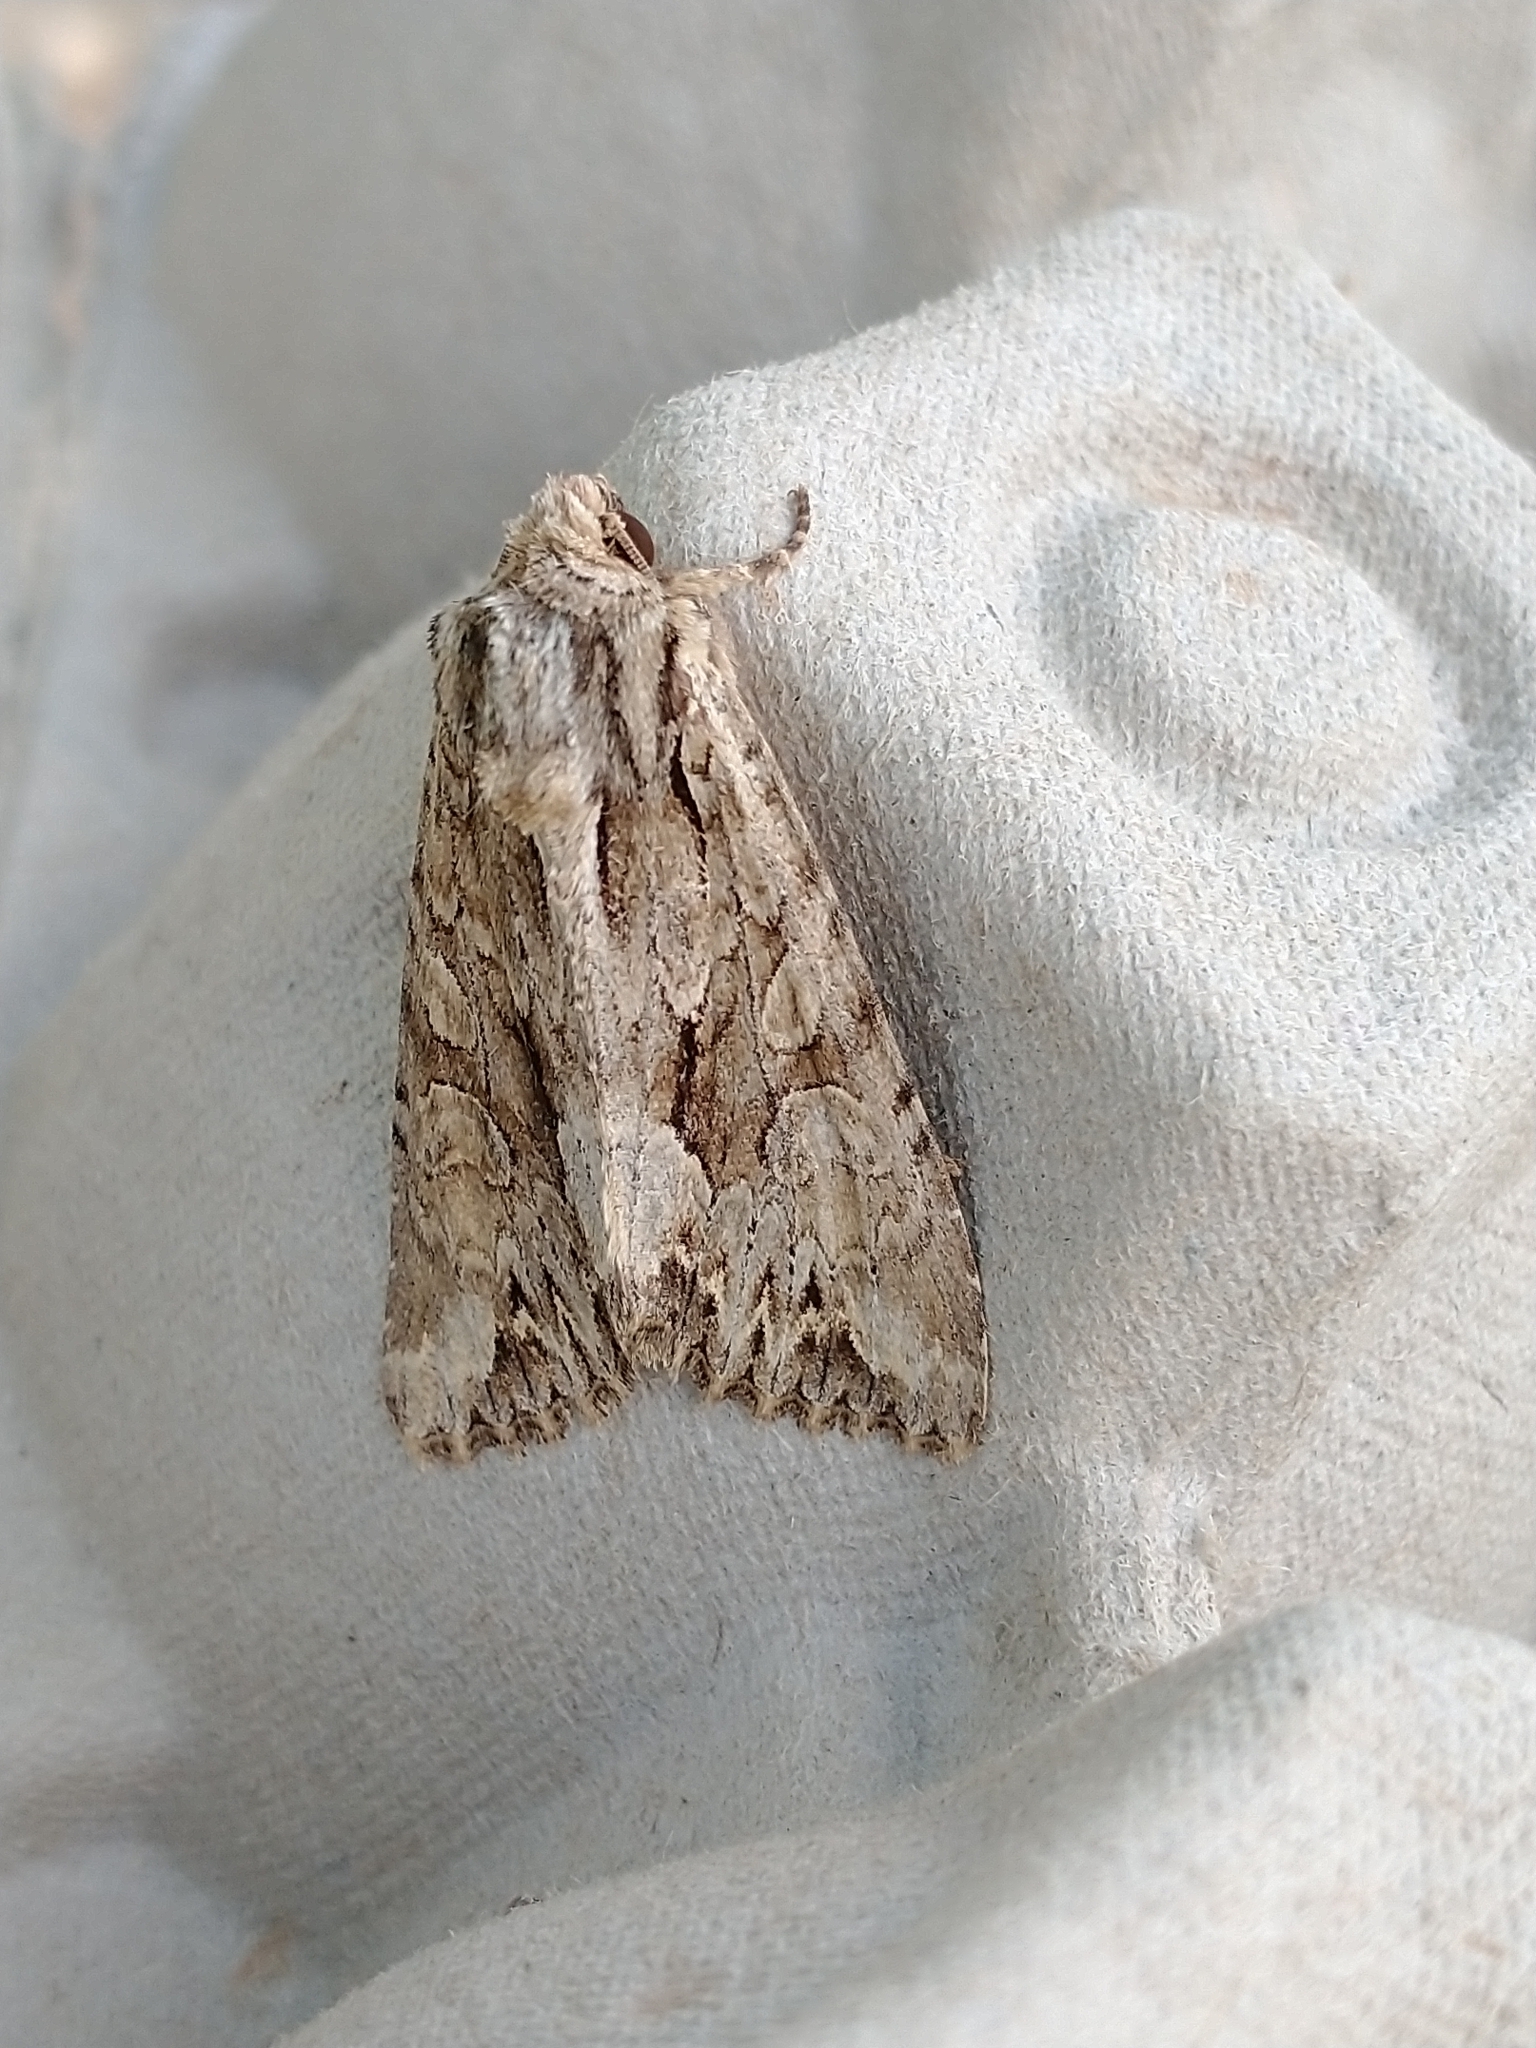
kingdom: Animalia
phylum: Arthropoda
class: Insecta
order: Lepidoptera
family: Noctuidae
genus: Apamea
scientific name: Apamea monoglypha
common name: Dark arches
